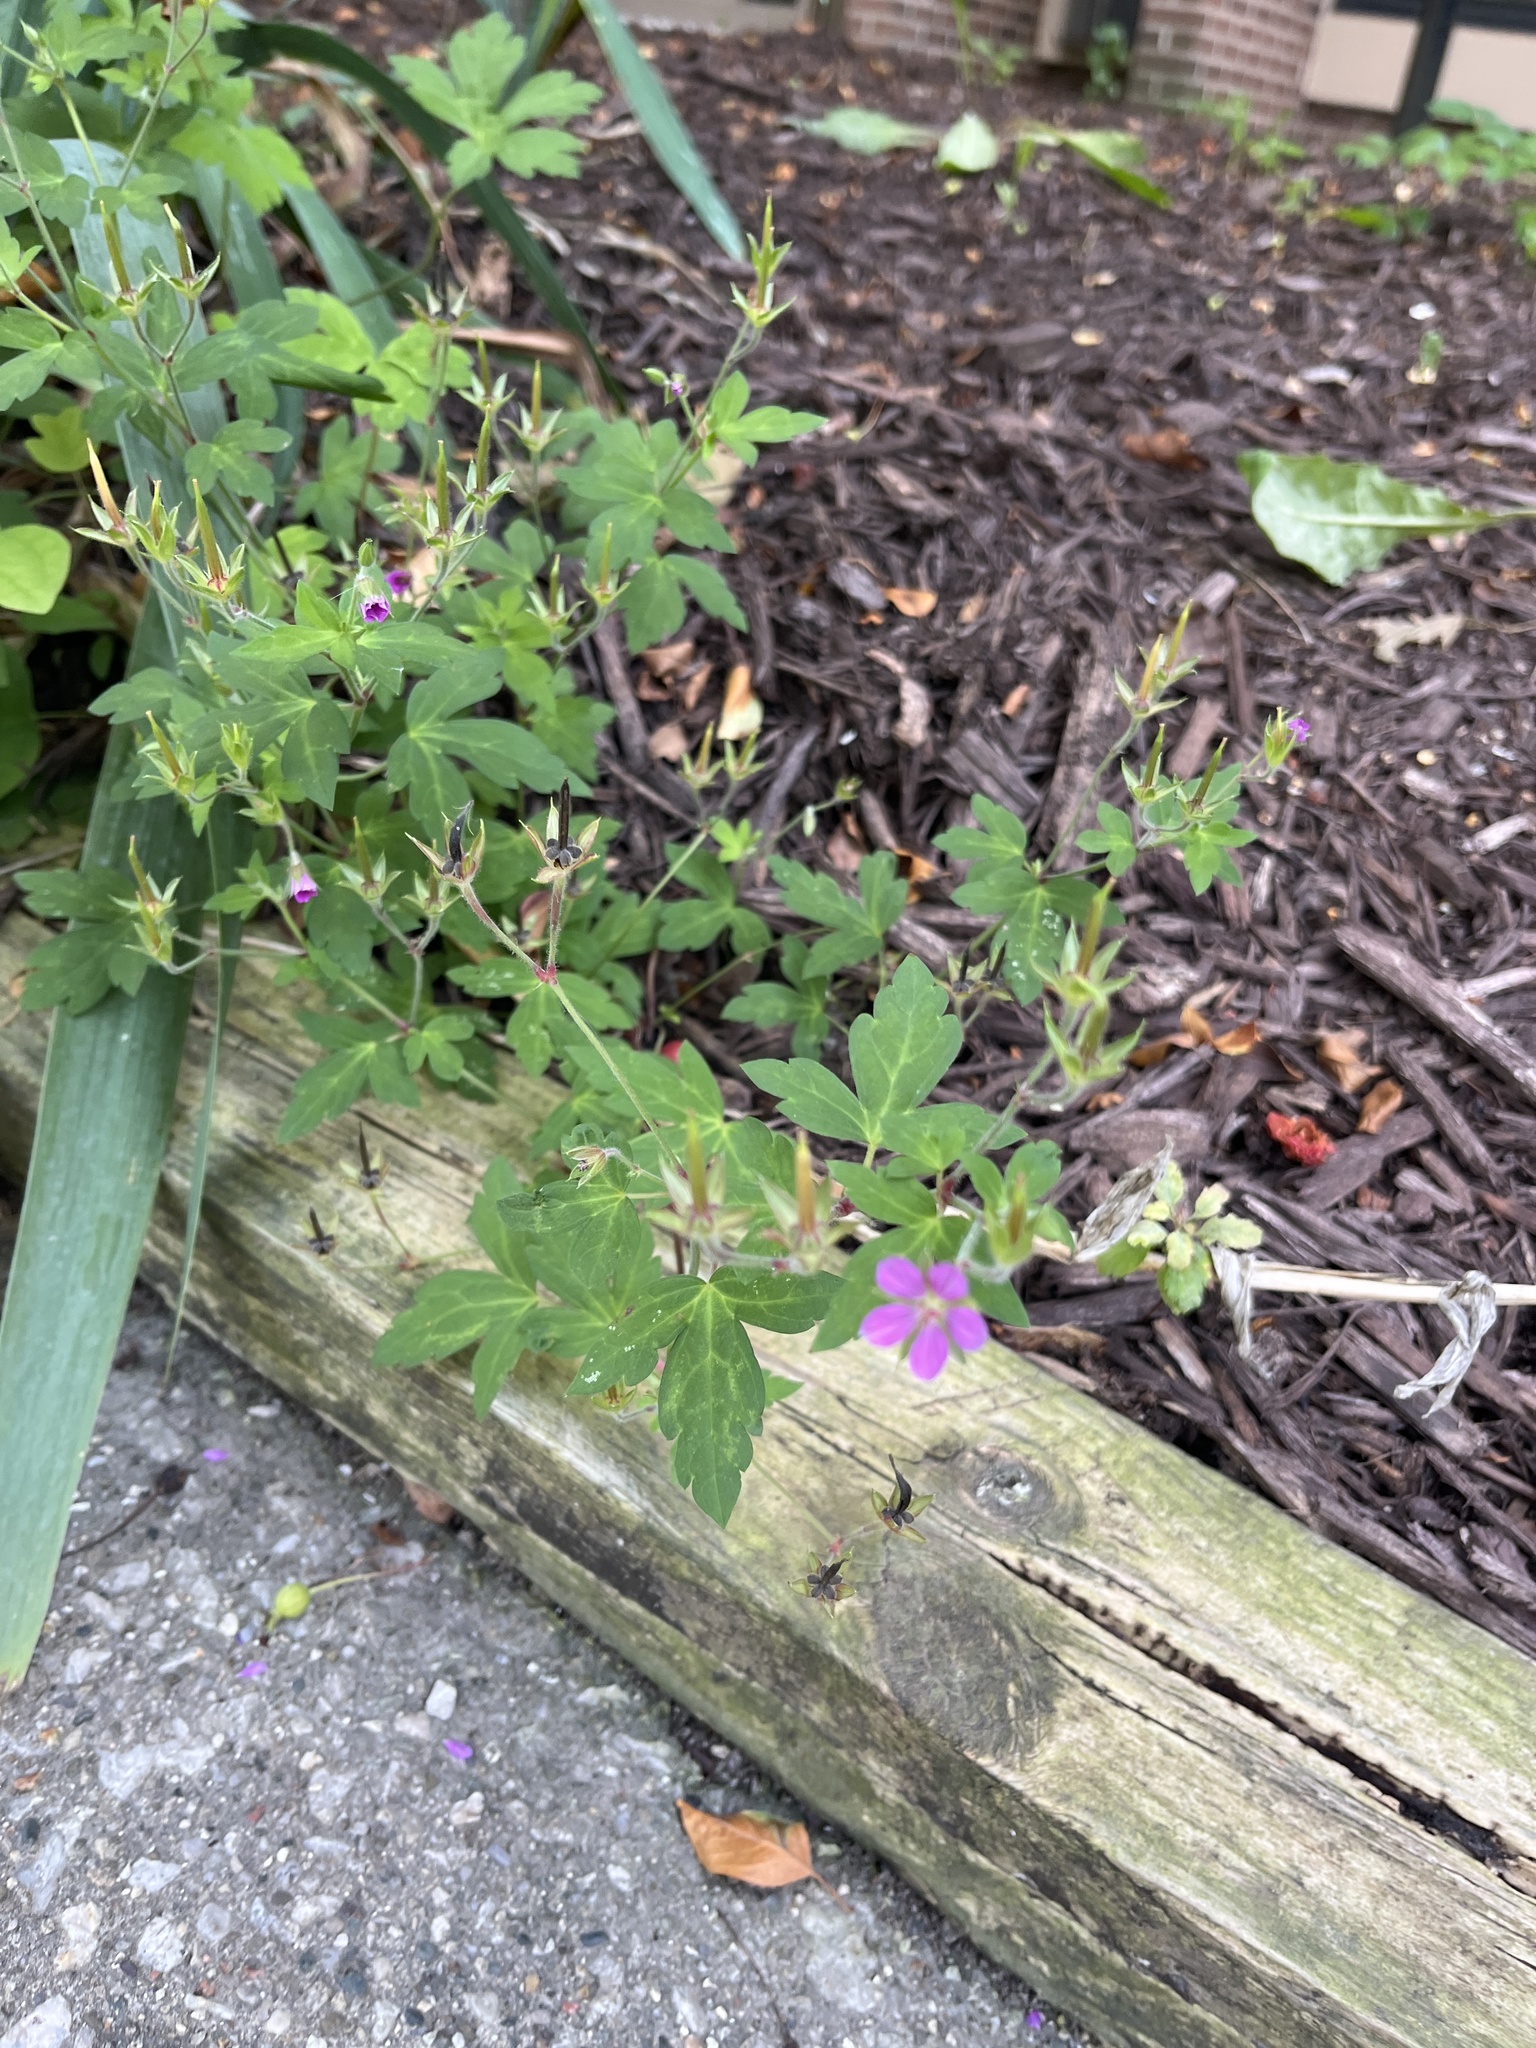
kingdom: Plantae
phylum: Tracheophyta
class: Magnoliopsida
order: Geraniales
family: Geraniaceae
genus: Geranium
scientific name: Geranium sibiricum
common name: Siberian crane's-bill
